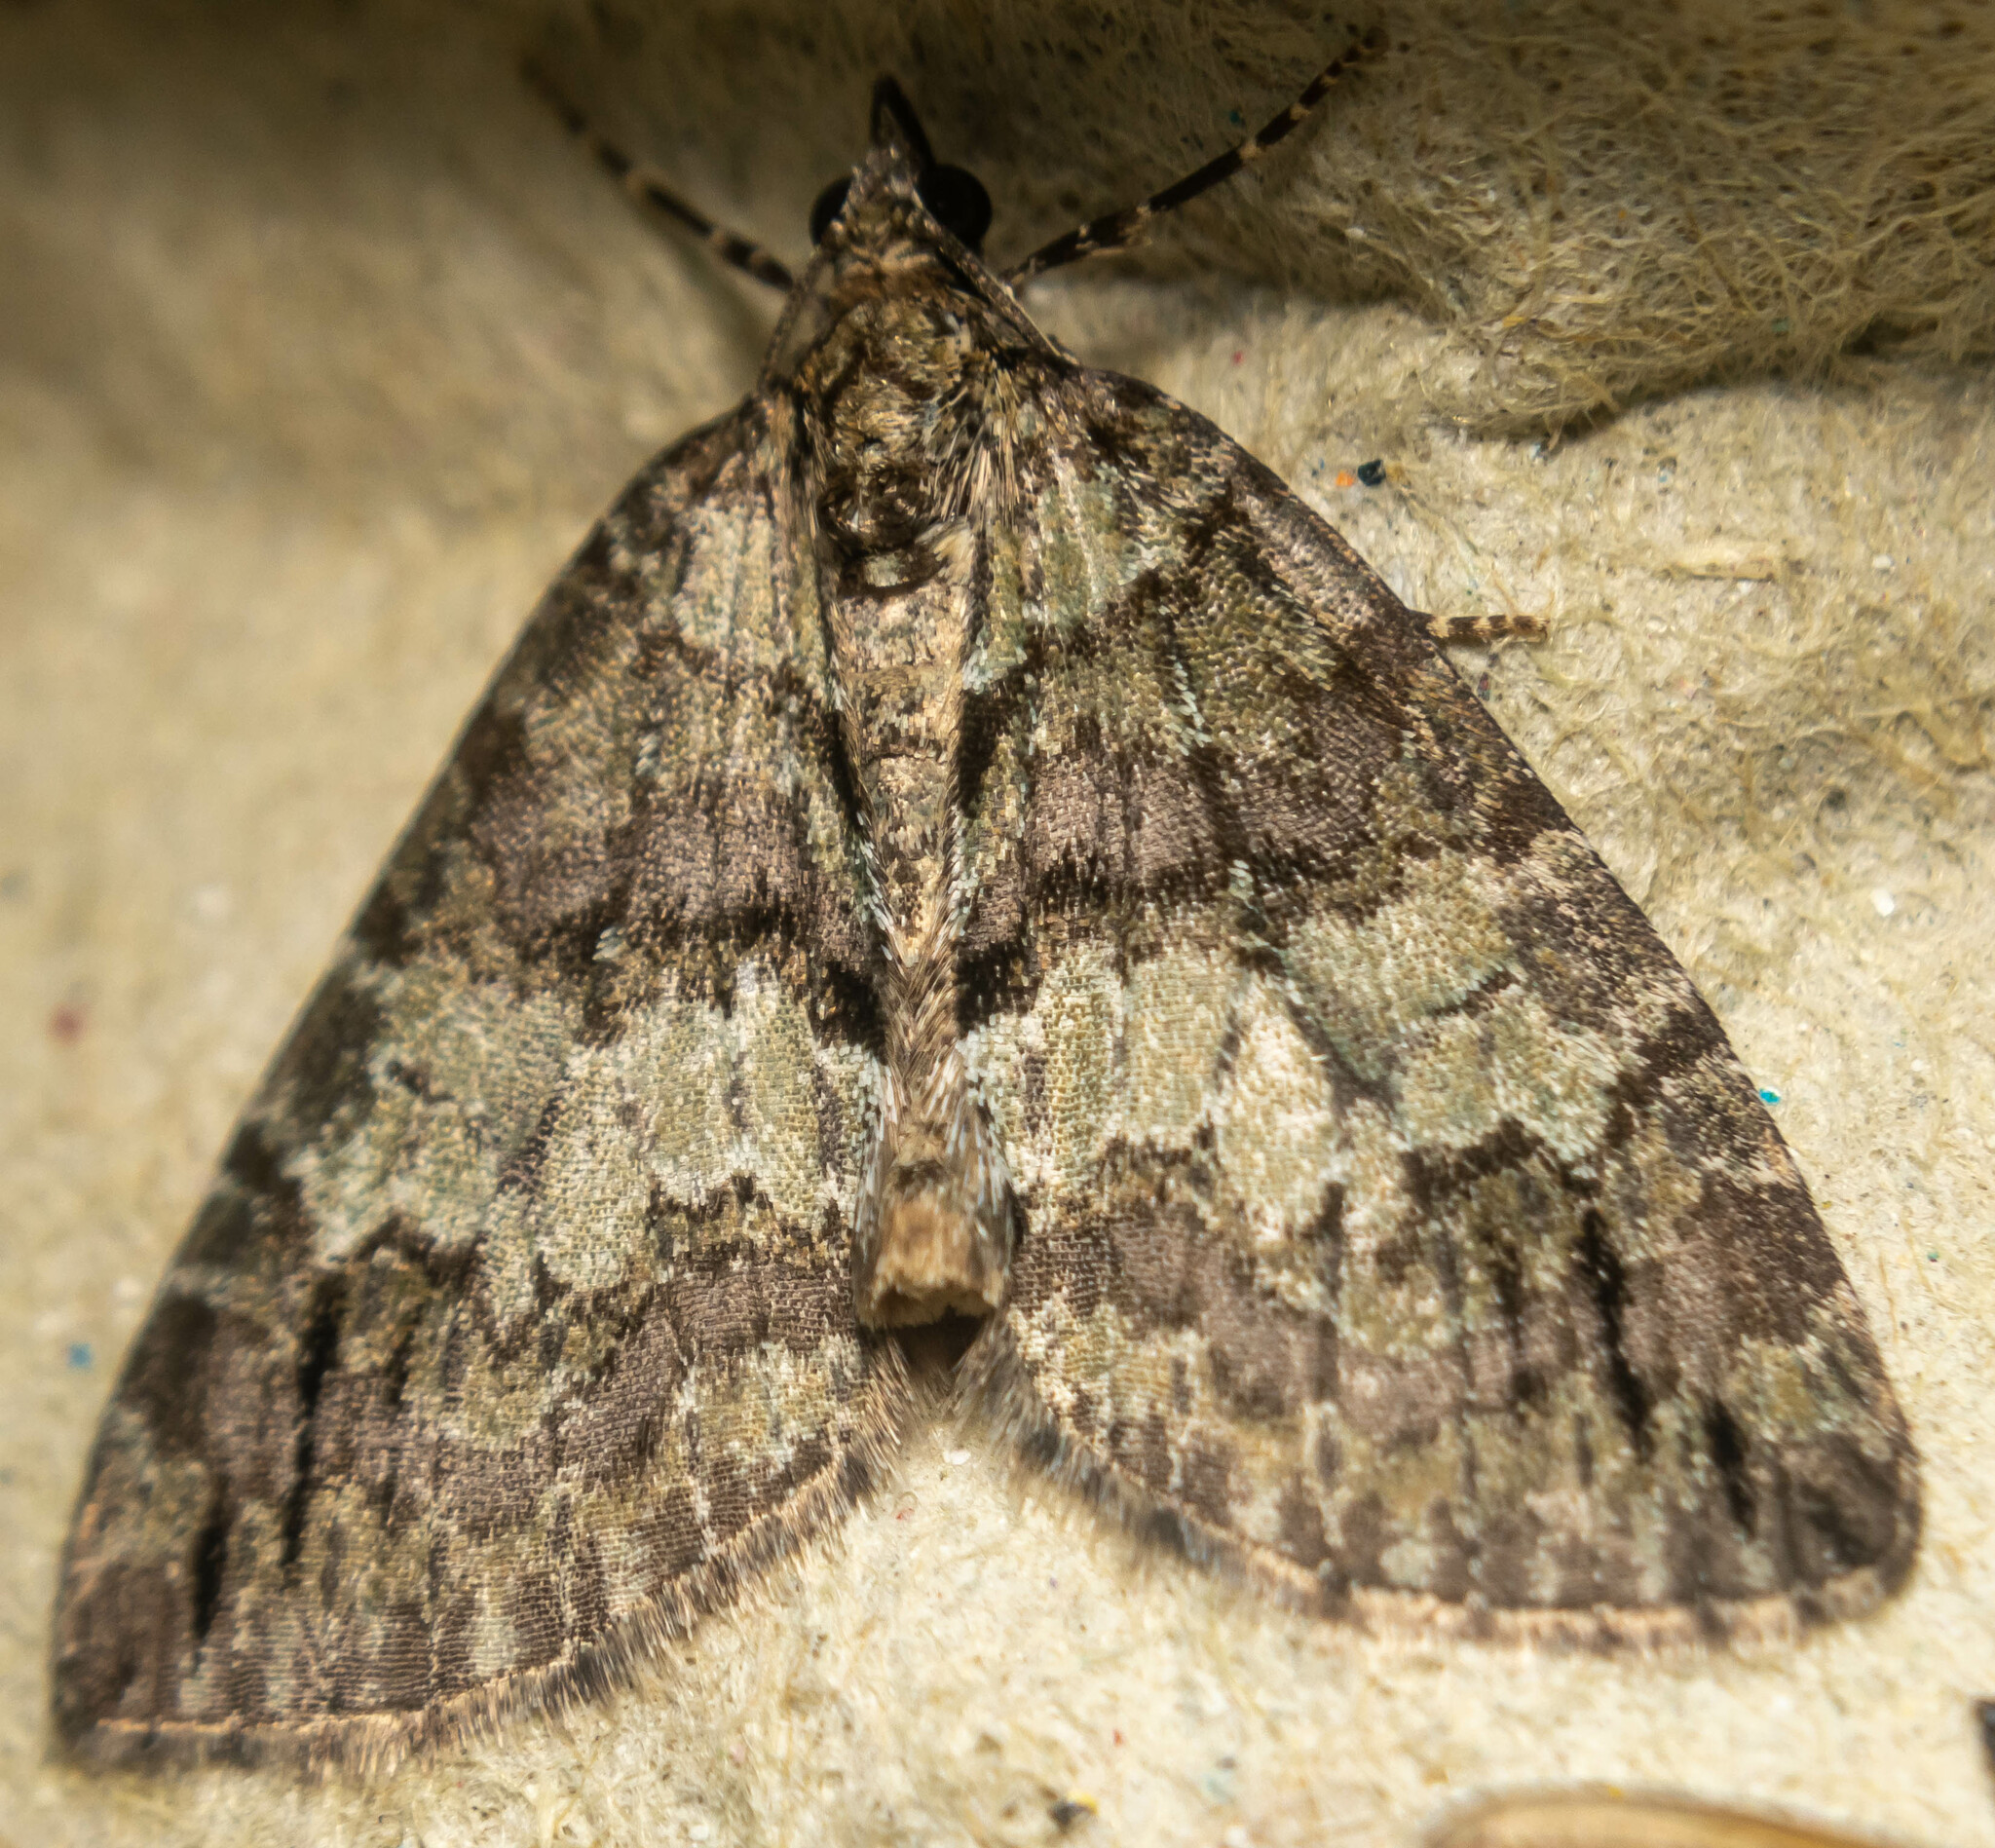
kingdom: Animalia
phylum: Arthropoda
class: Insecta
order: Lepidoptera
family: Geometridae
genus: Hydriomena
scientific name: Hydriomena impluviata
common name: May highflyer
